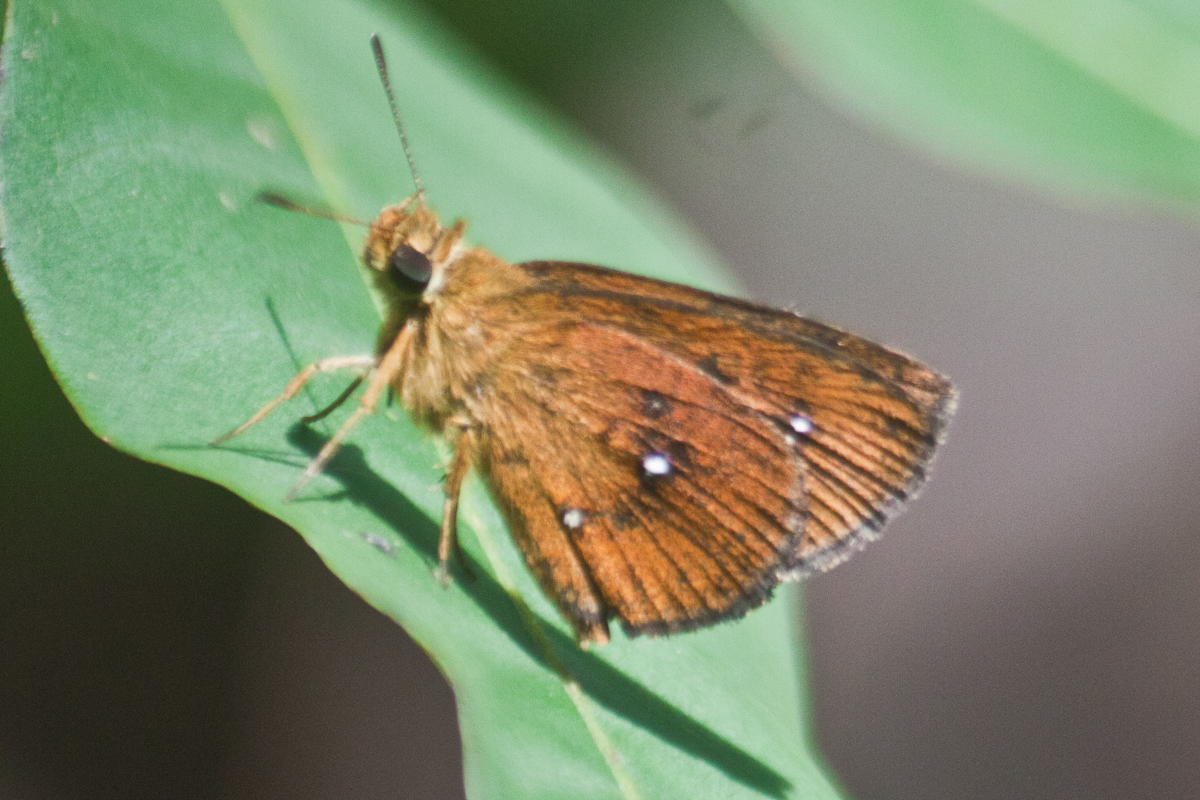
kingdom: Animalia
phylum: Arthropoda
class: Insecta
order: Lepidoptera
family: Hesperiidae
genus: Iambrix
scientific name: Iambrix salsala
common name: Chestnut bob
